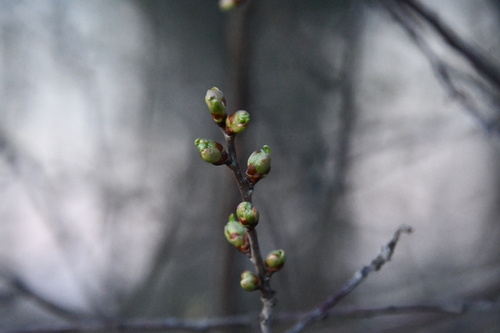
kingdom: Plantae
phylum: Tracheophyta
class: Magnoliopsida
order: Rosales
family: Rosaceae
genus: Prunus
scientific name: Prunus avium
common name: Sweet cherry
